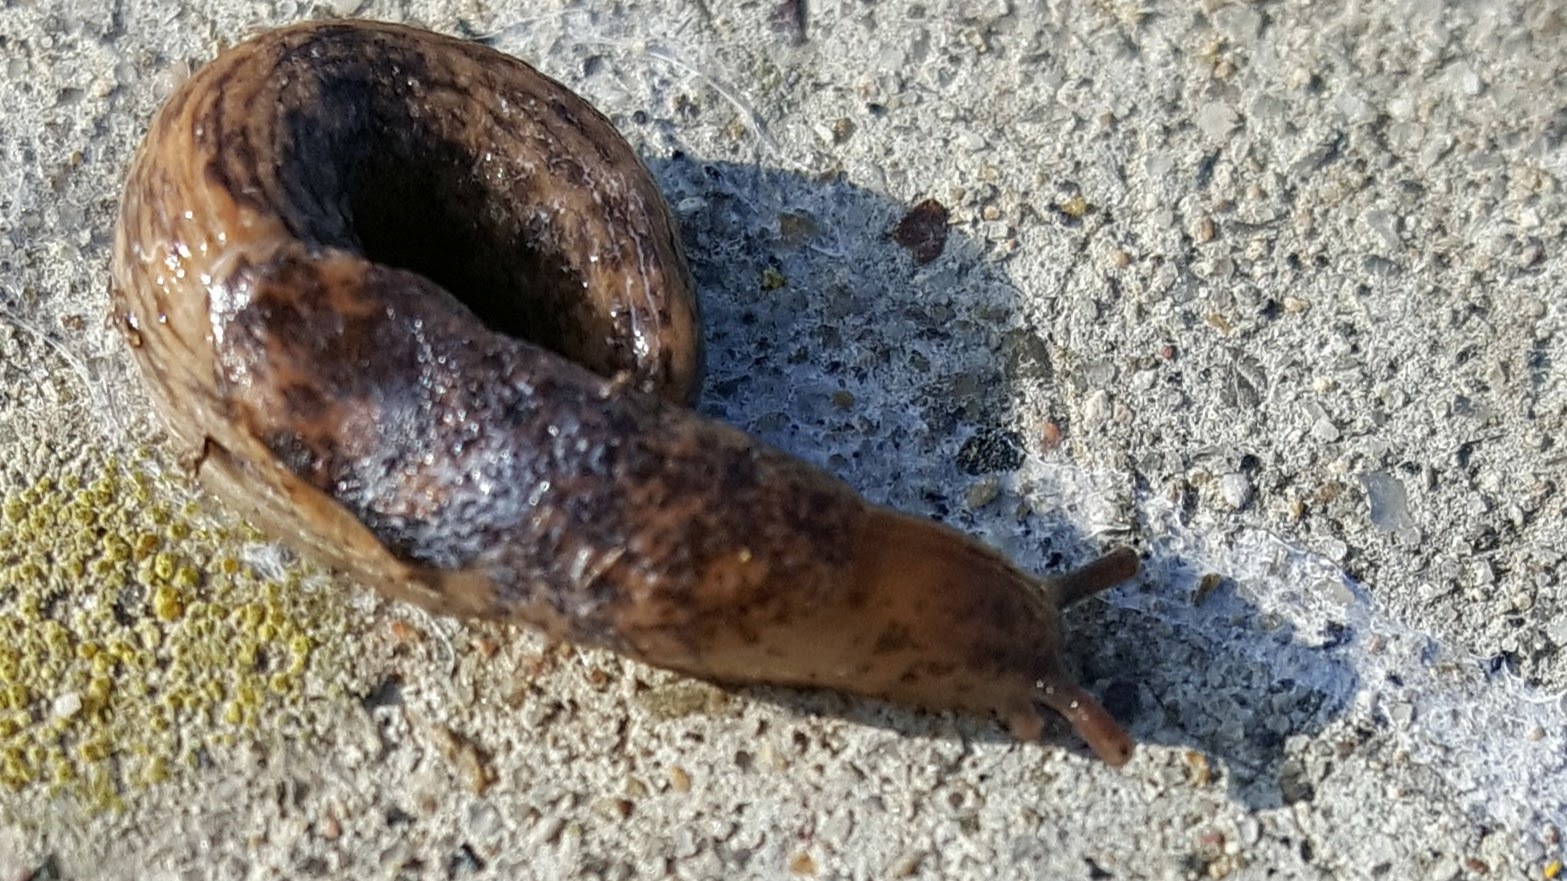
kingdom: Animalia
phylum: Mollusca
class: Gastropoda
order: Stylommatophora
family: Agriolimacidae
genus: Deroceras
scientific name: Deroceras reticulatum
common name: Gray field slug
